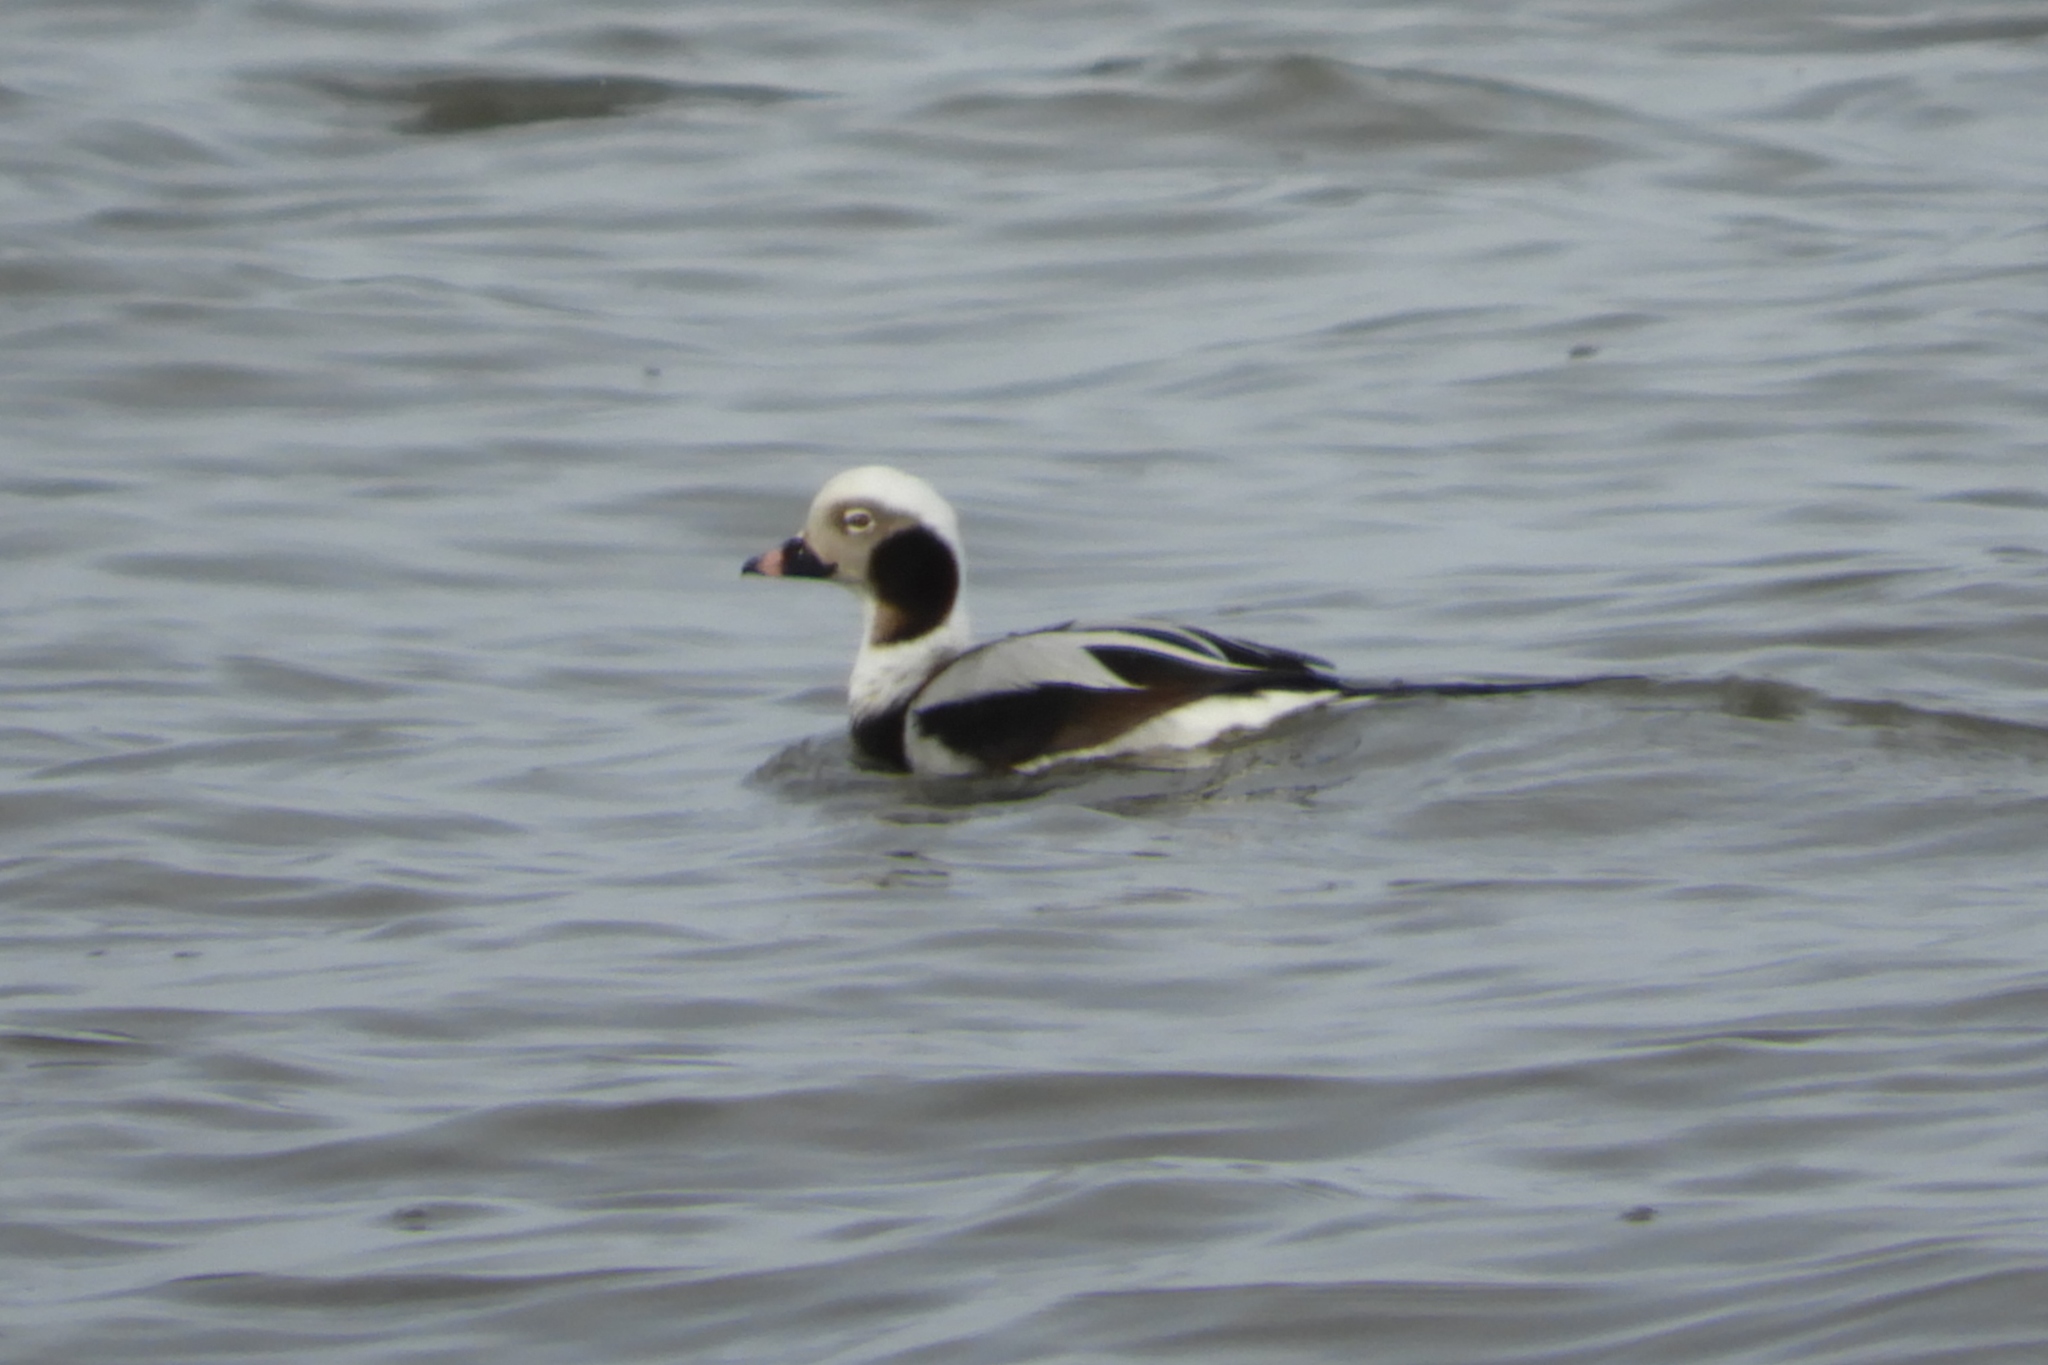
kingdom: Animalia
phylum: Chordata
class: Aves
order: Anseriformes
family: Anatidae
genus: Clangula
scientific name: Clangula hyemalis
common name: Long-tailed duck
